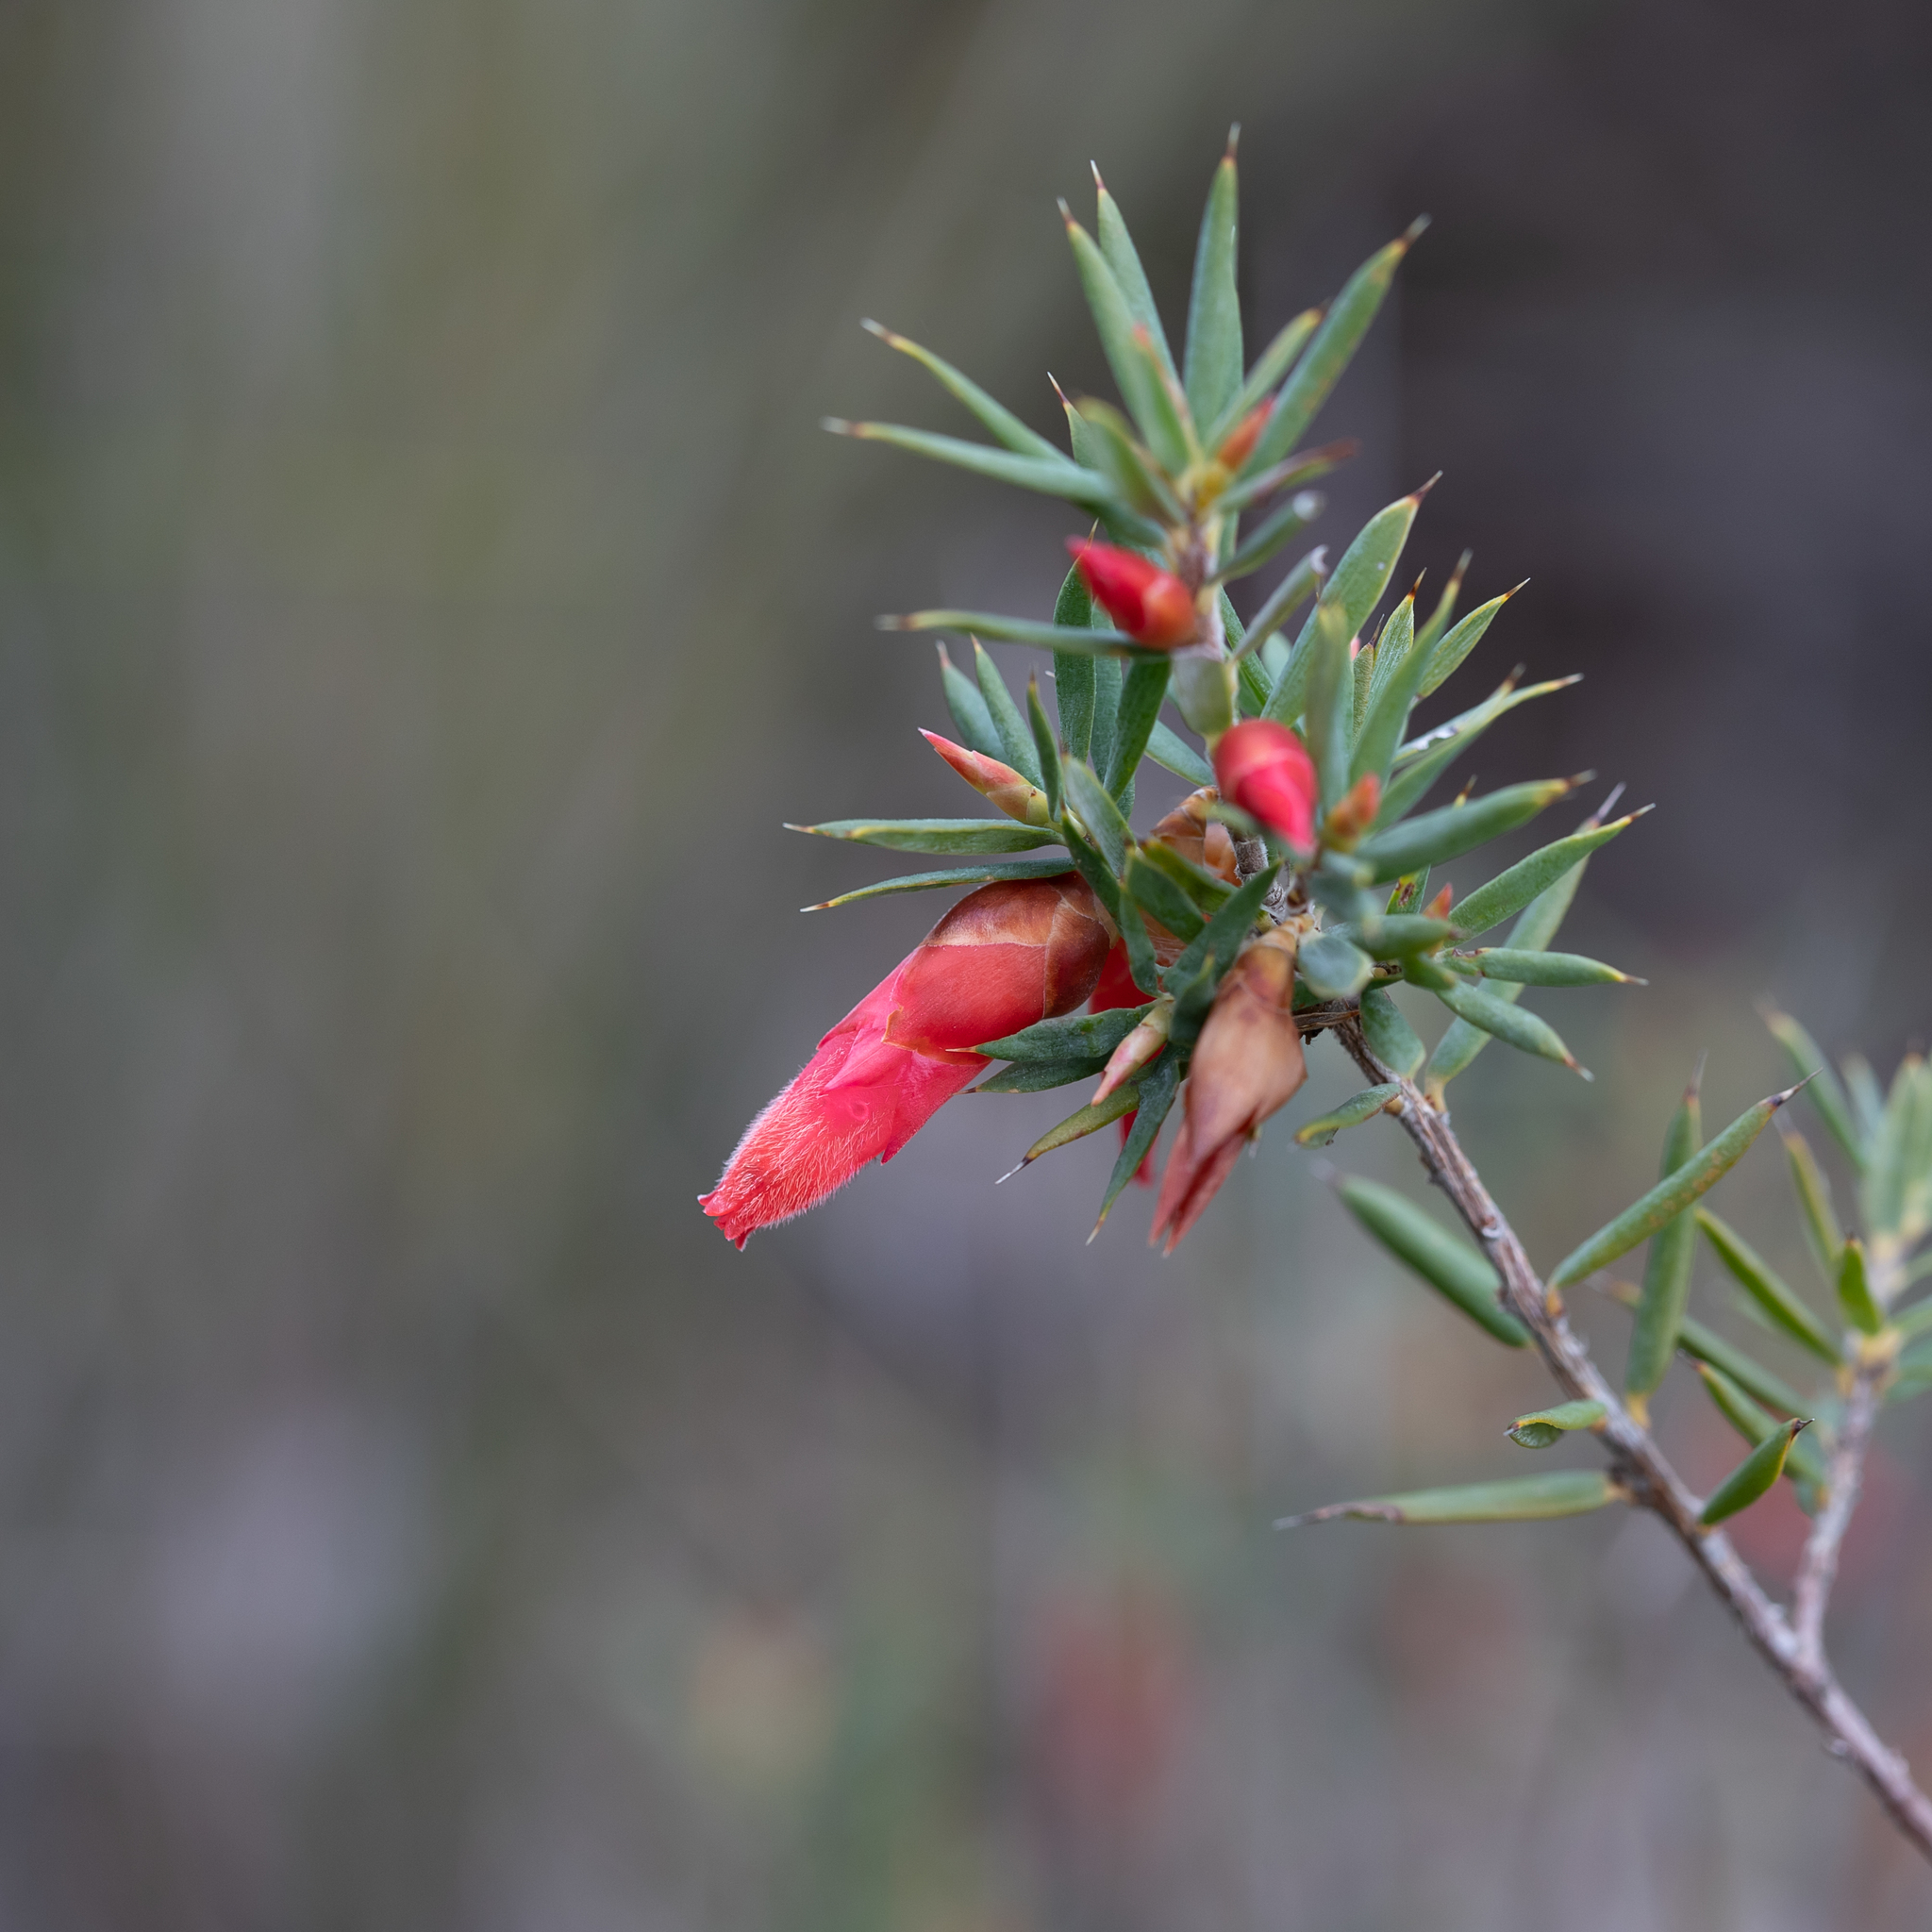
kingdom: Plantae
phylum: Tracheophyta
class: Magnoliopsida
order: Ericales
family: Ericaceae
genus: Stenanthera
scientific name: Stenanthera conostephioides
